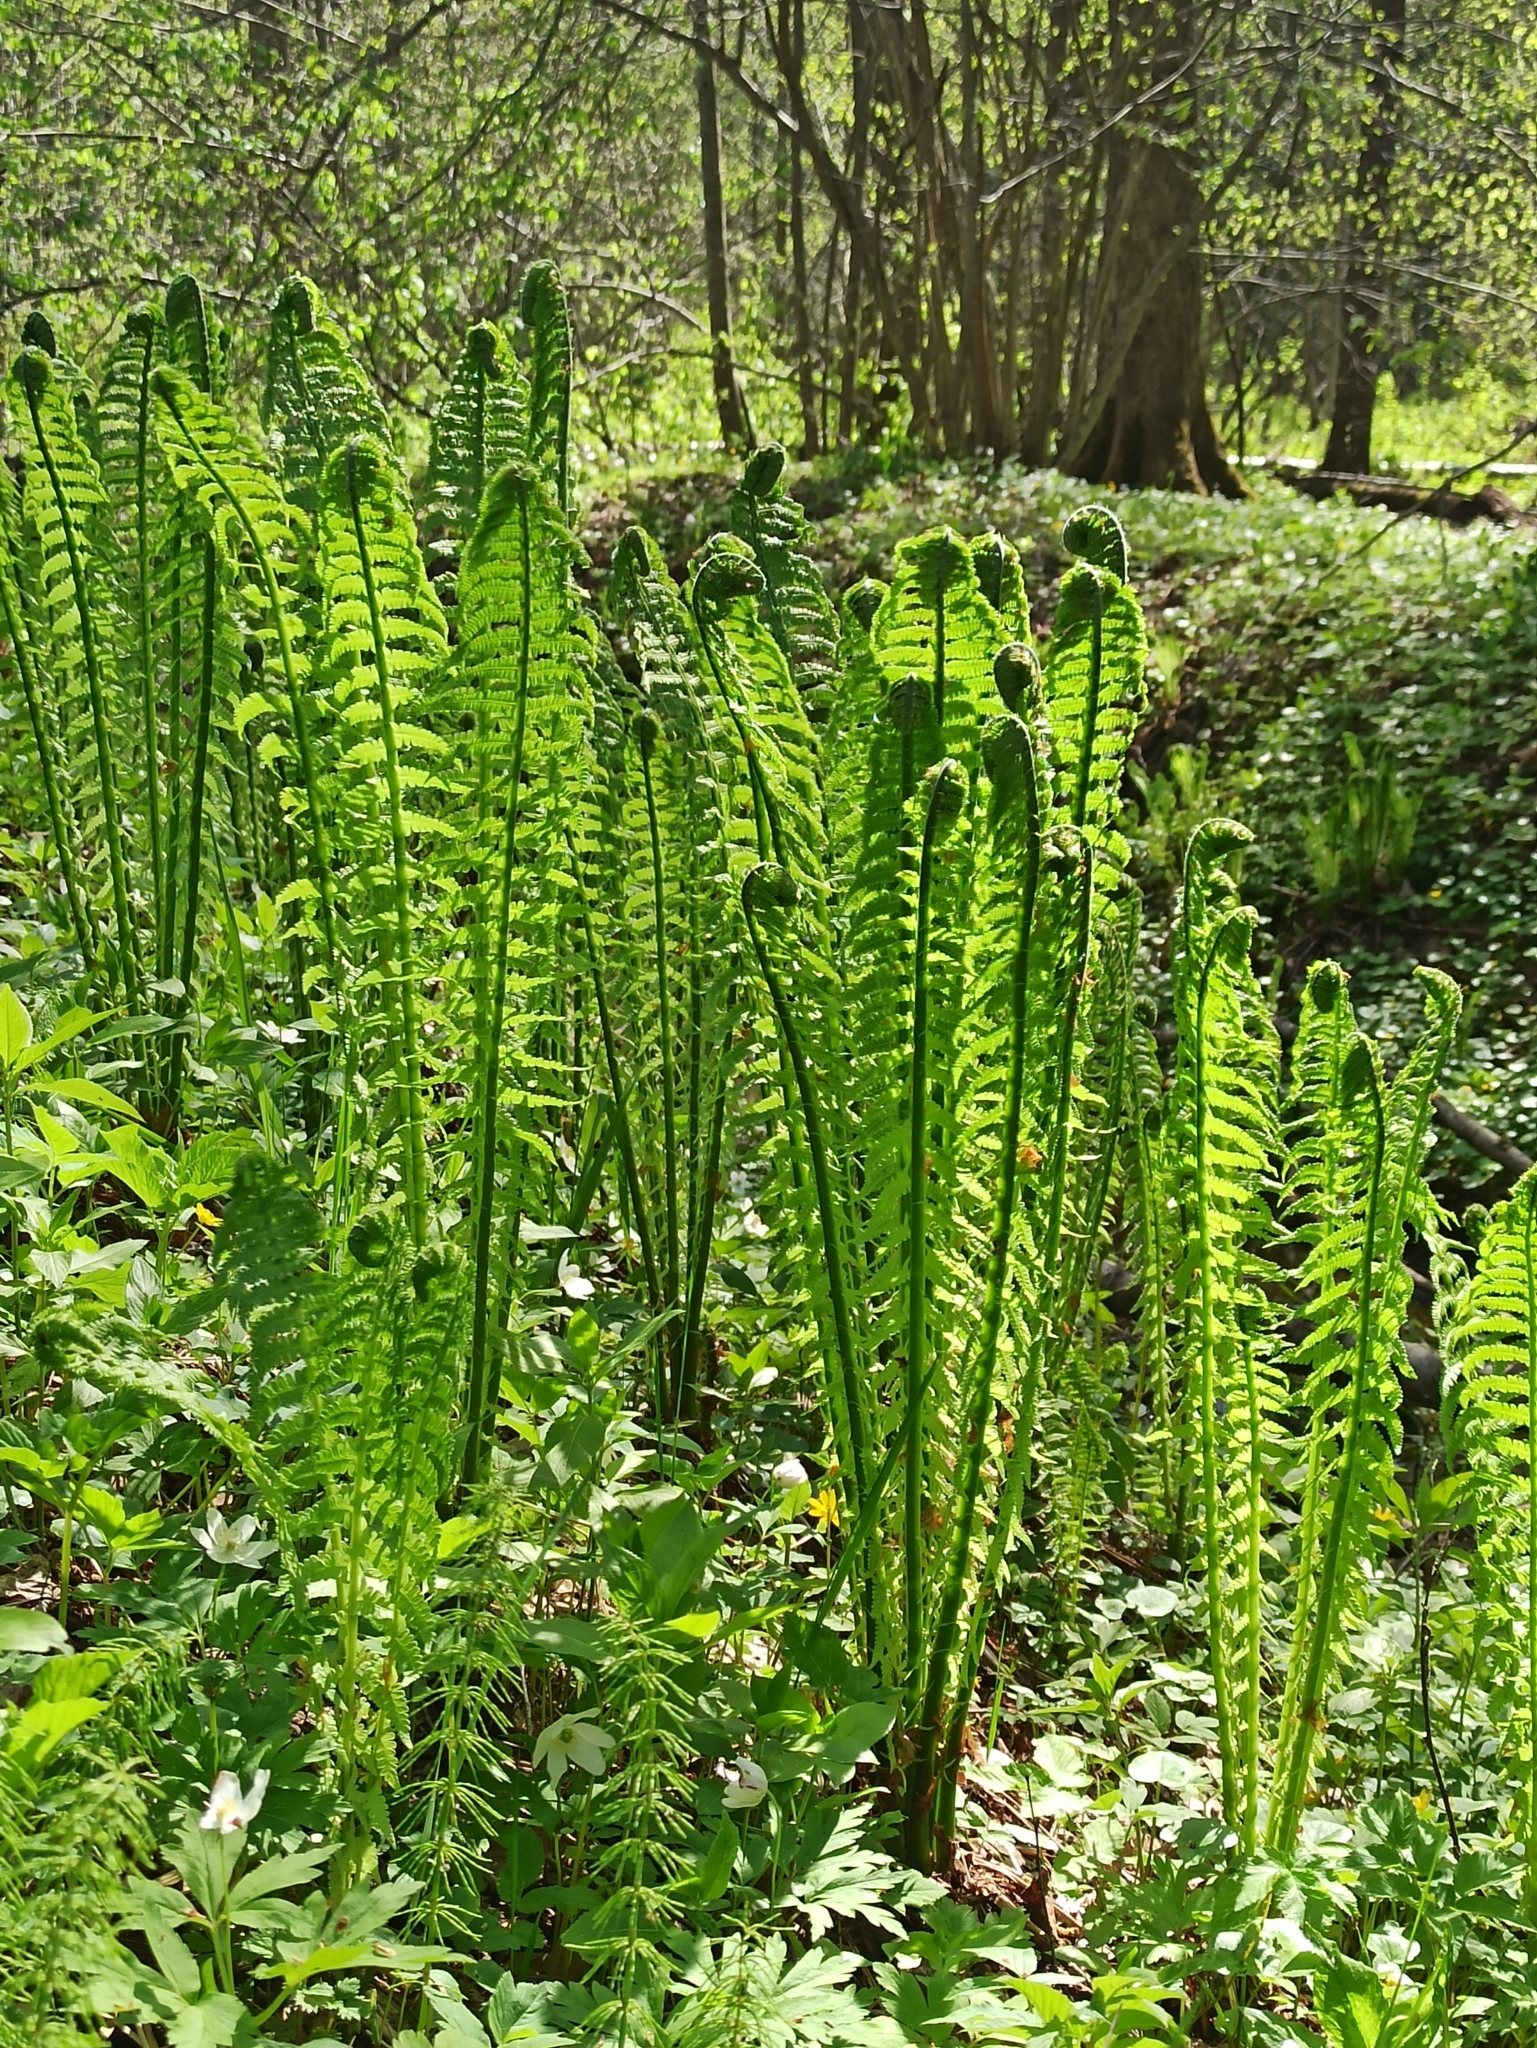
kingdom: Plantae
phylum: Tracheophyta
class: Polypodiopsida
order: Polypodiales
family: Onocleaceae
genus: Matteuccia
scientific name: Matteuccia struthiopteris
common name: Ostrich fern
